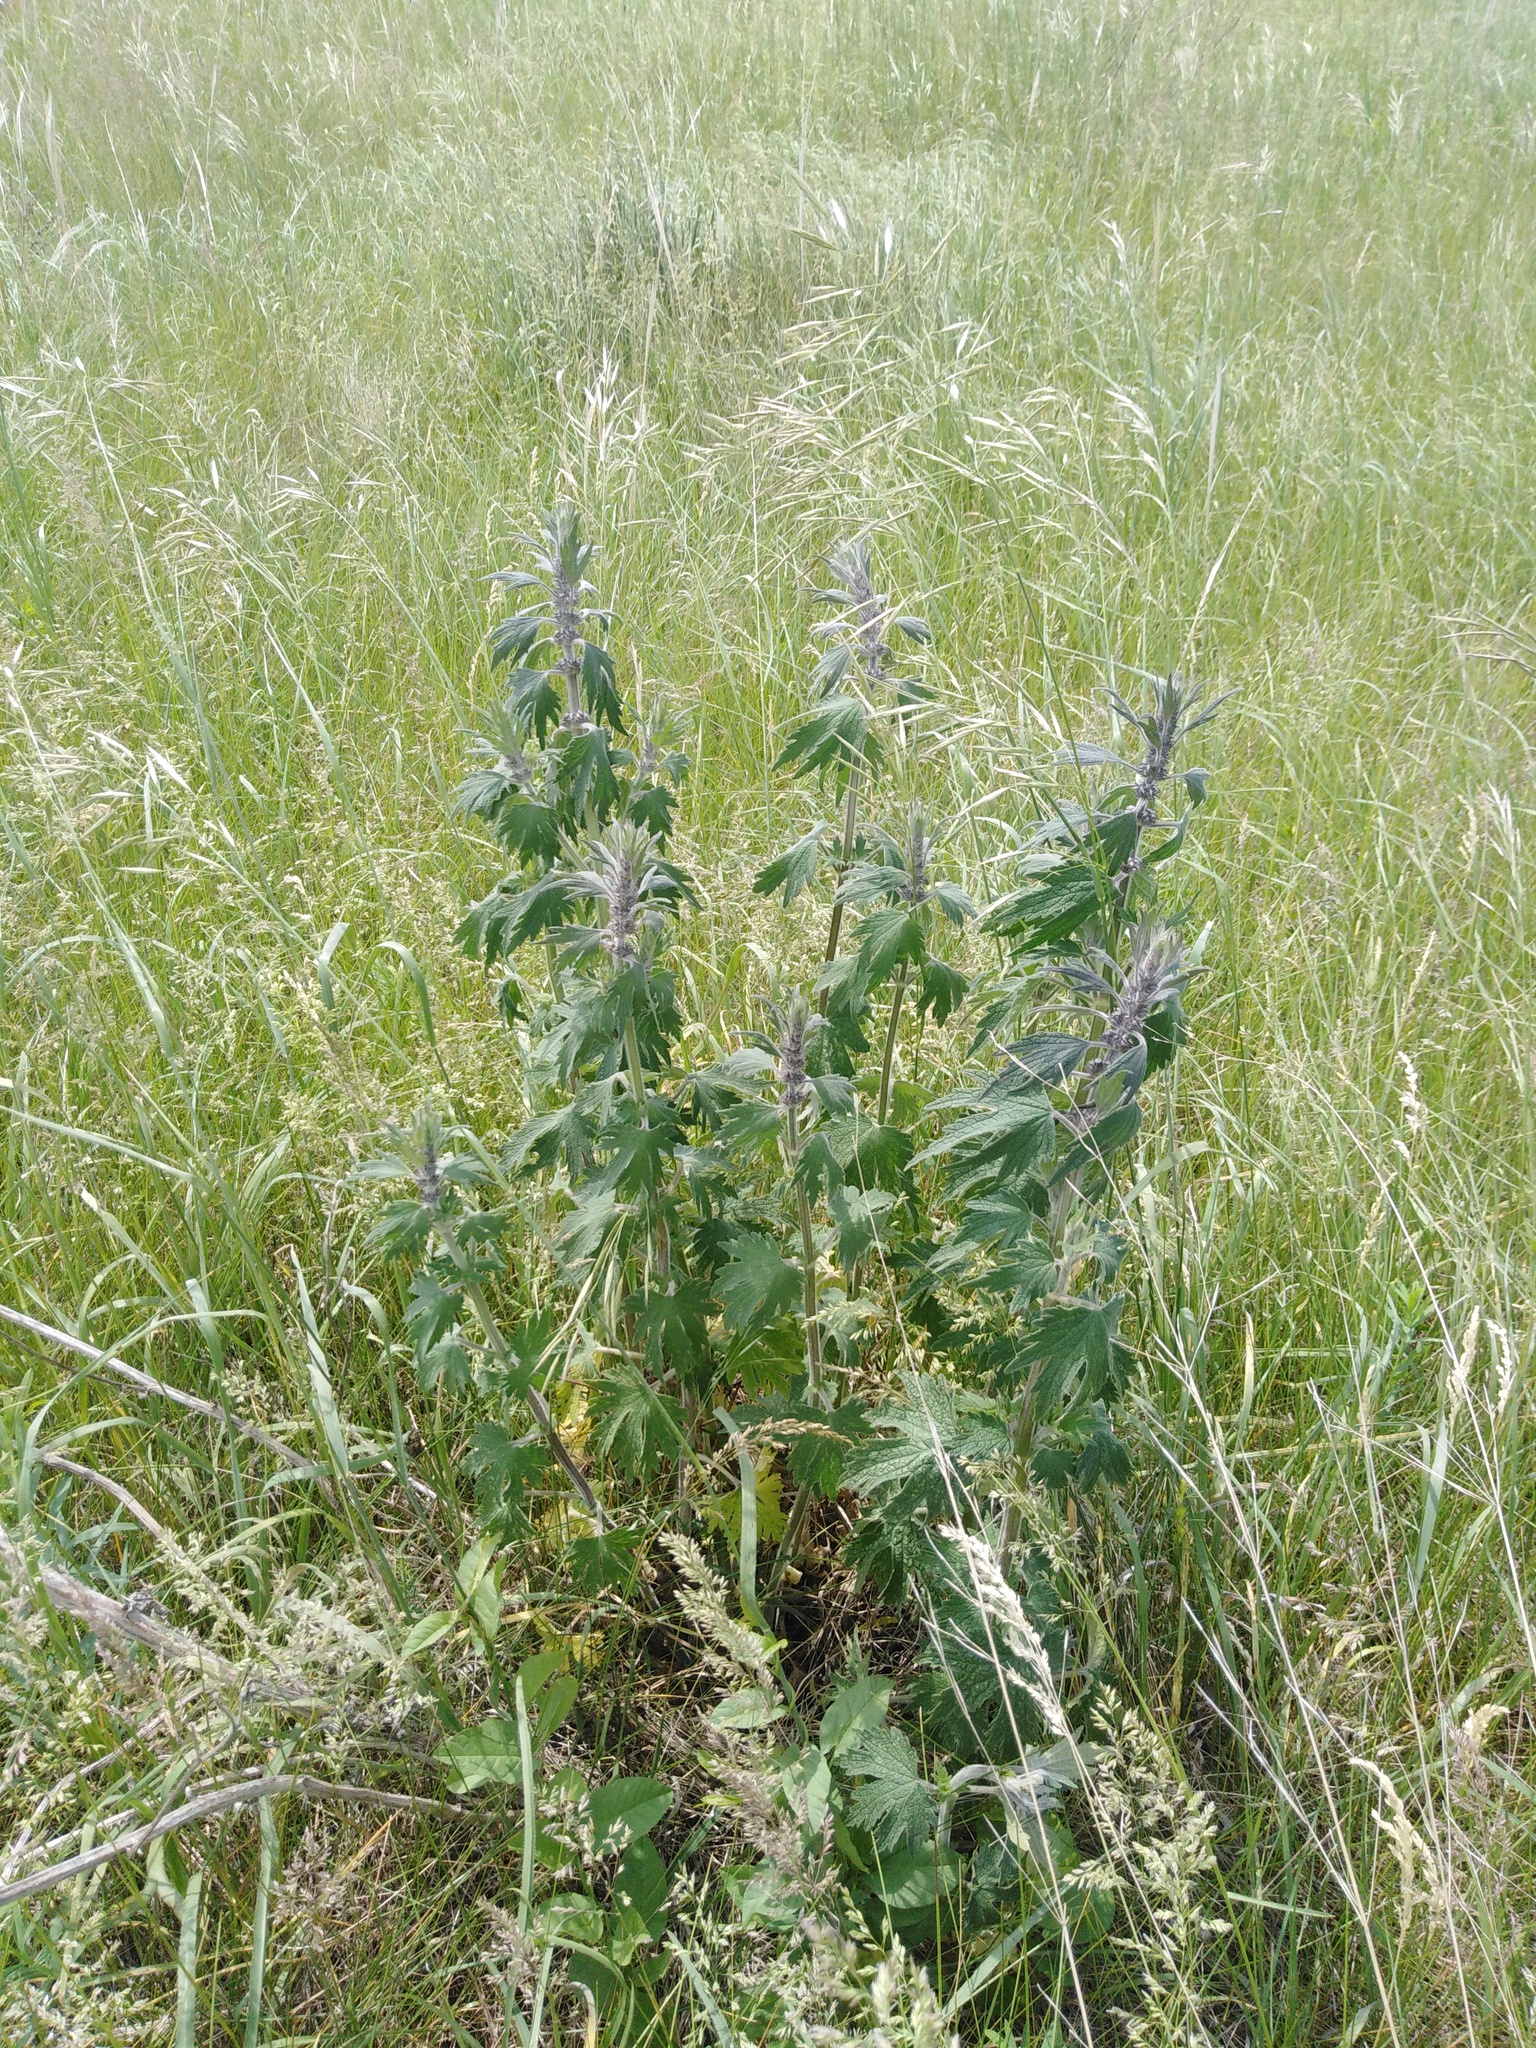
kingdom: Plantae
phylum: Tracheophyta
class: Magnoliopsida
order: Lamiales
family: Lamiaceae
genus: Leonurus
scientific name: Leonurus quinquelobatus
